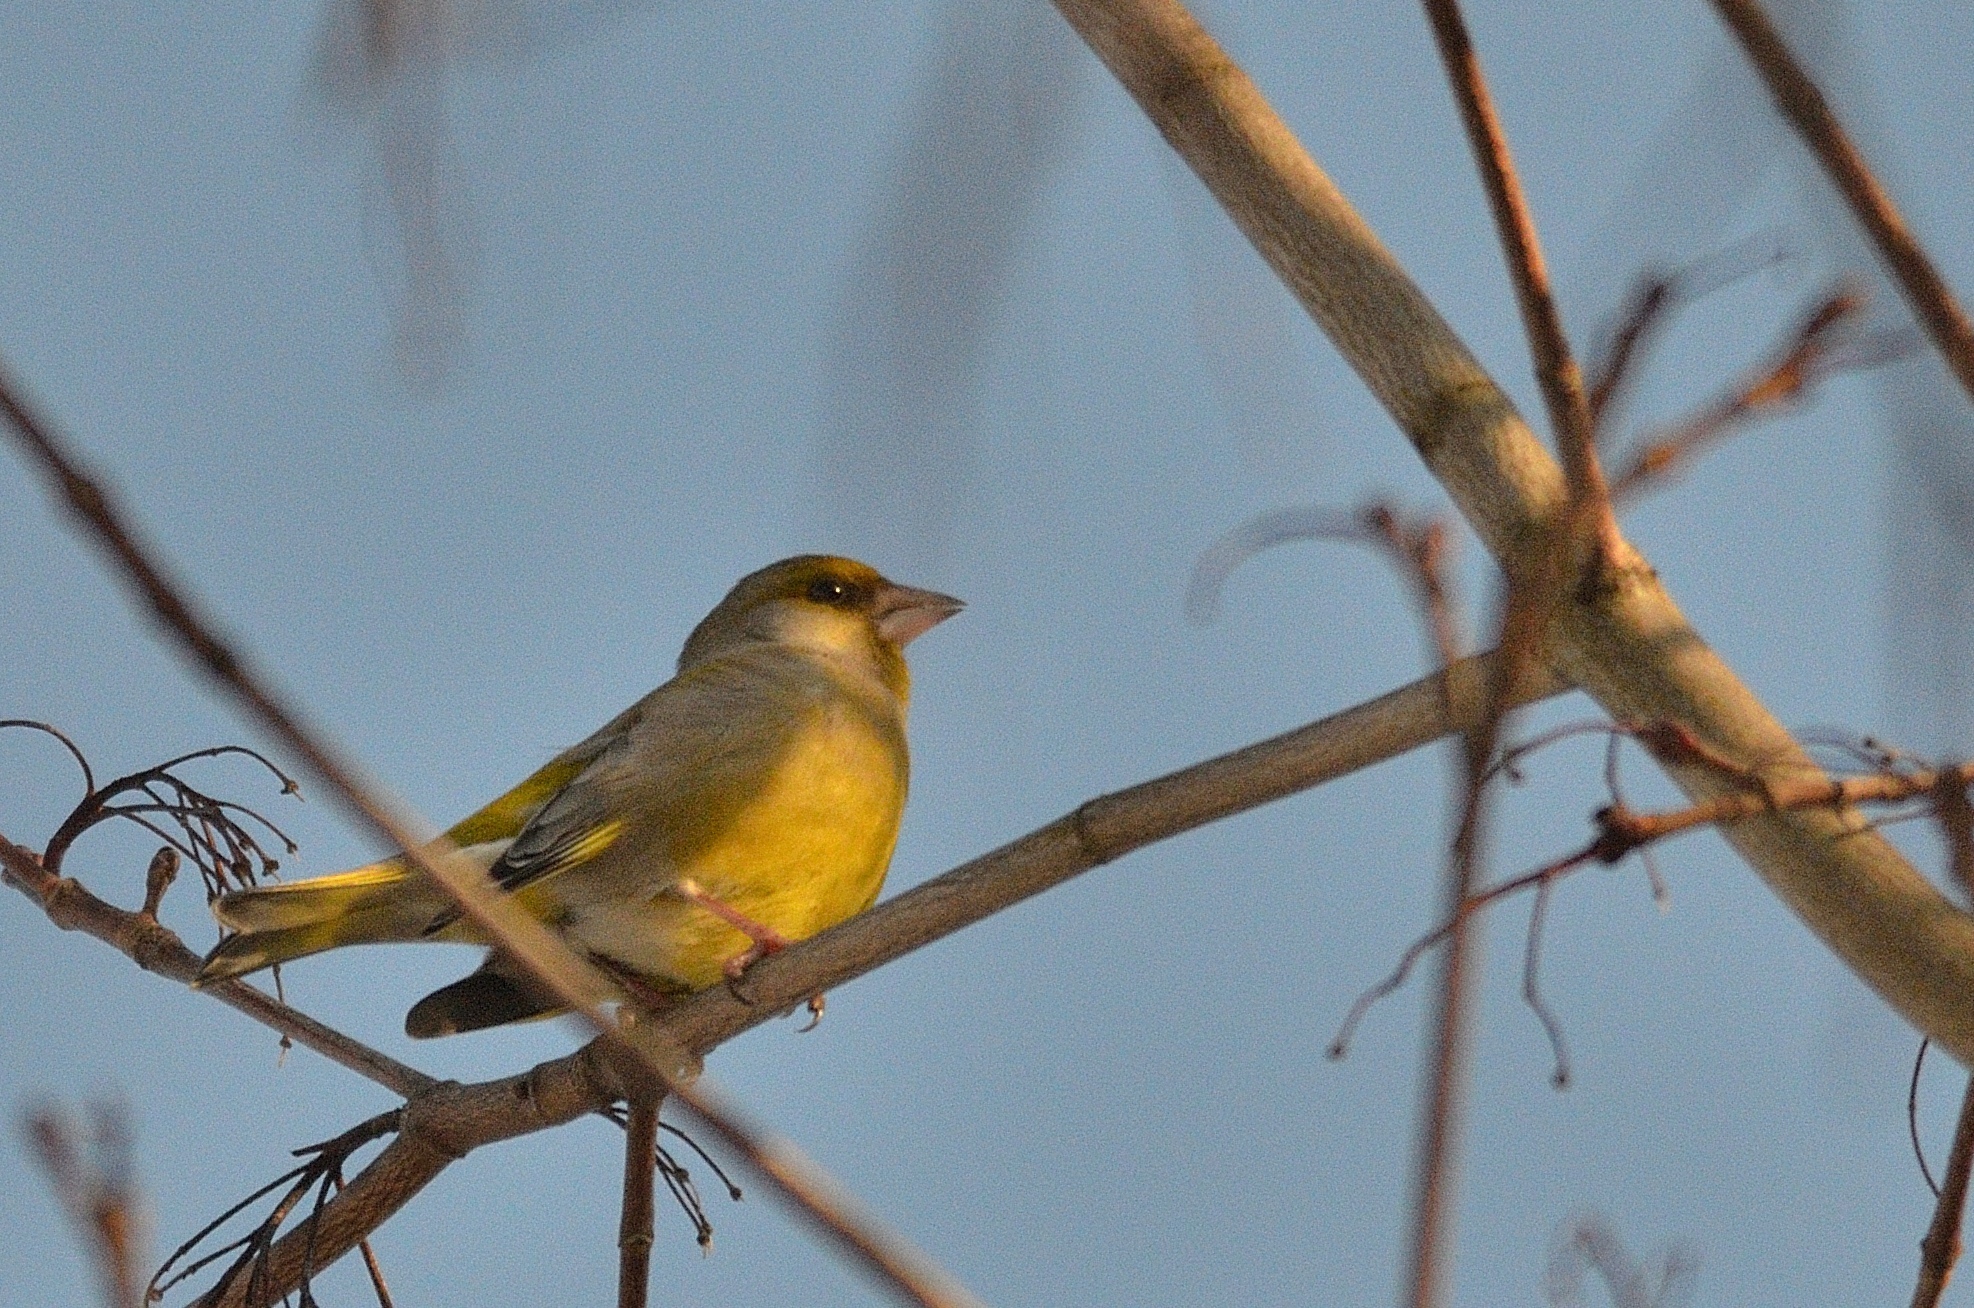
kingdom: Plantae
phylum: Tracheophyta
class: Liliopsida
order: Poales
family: Poaceae
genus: Chloris
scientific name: Chloris chloris
